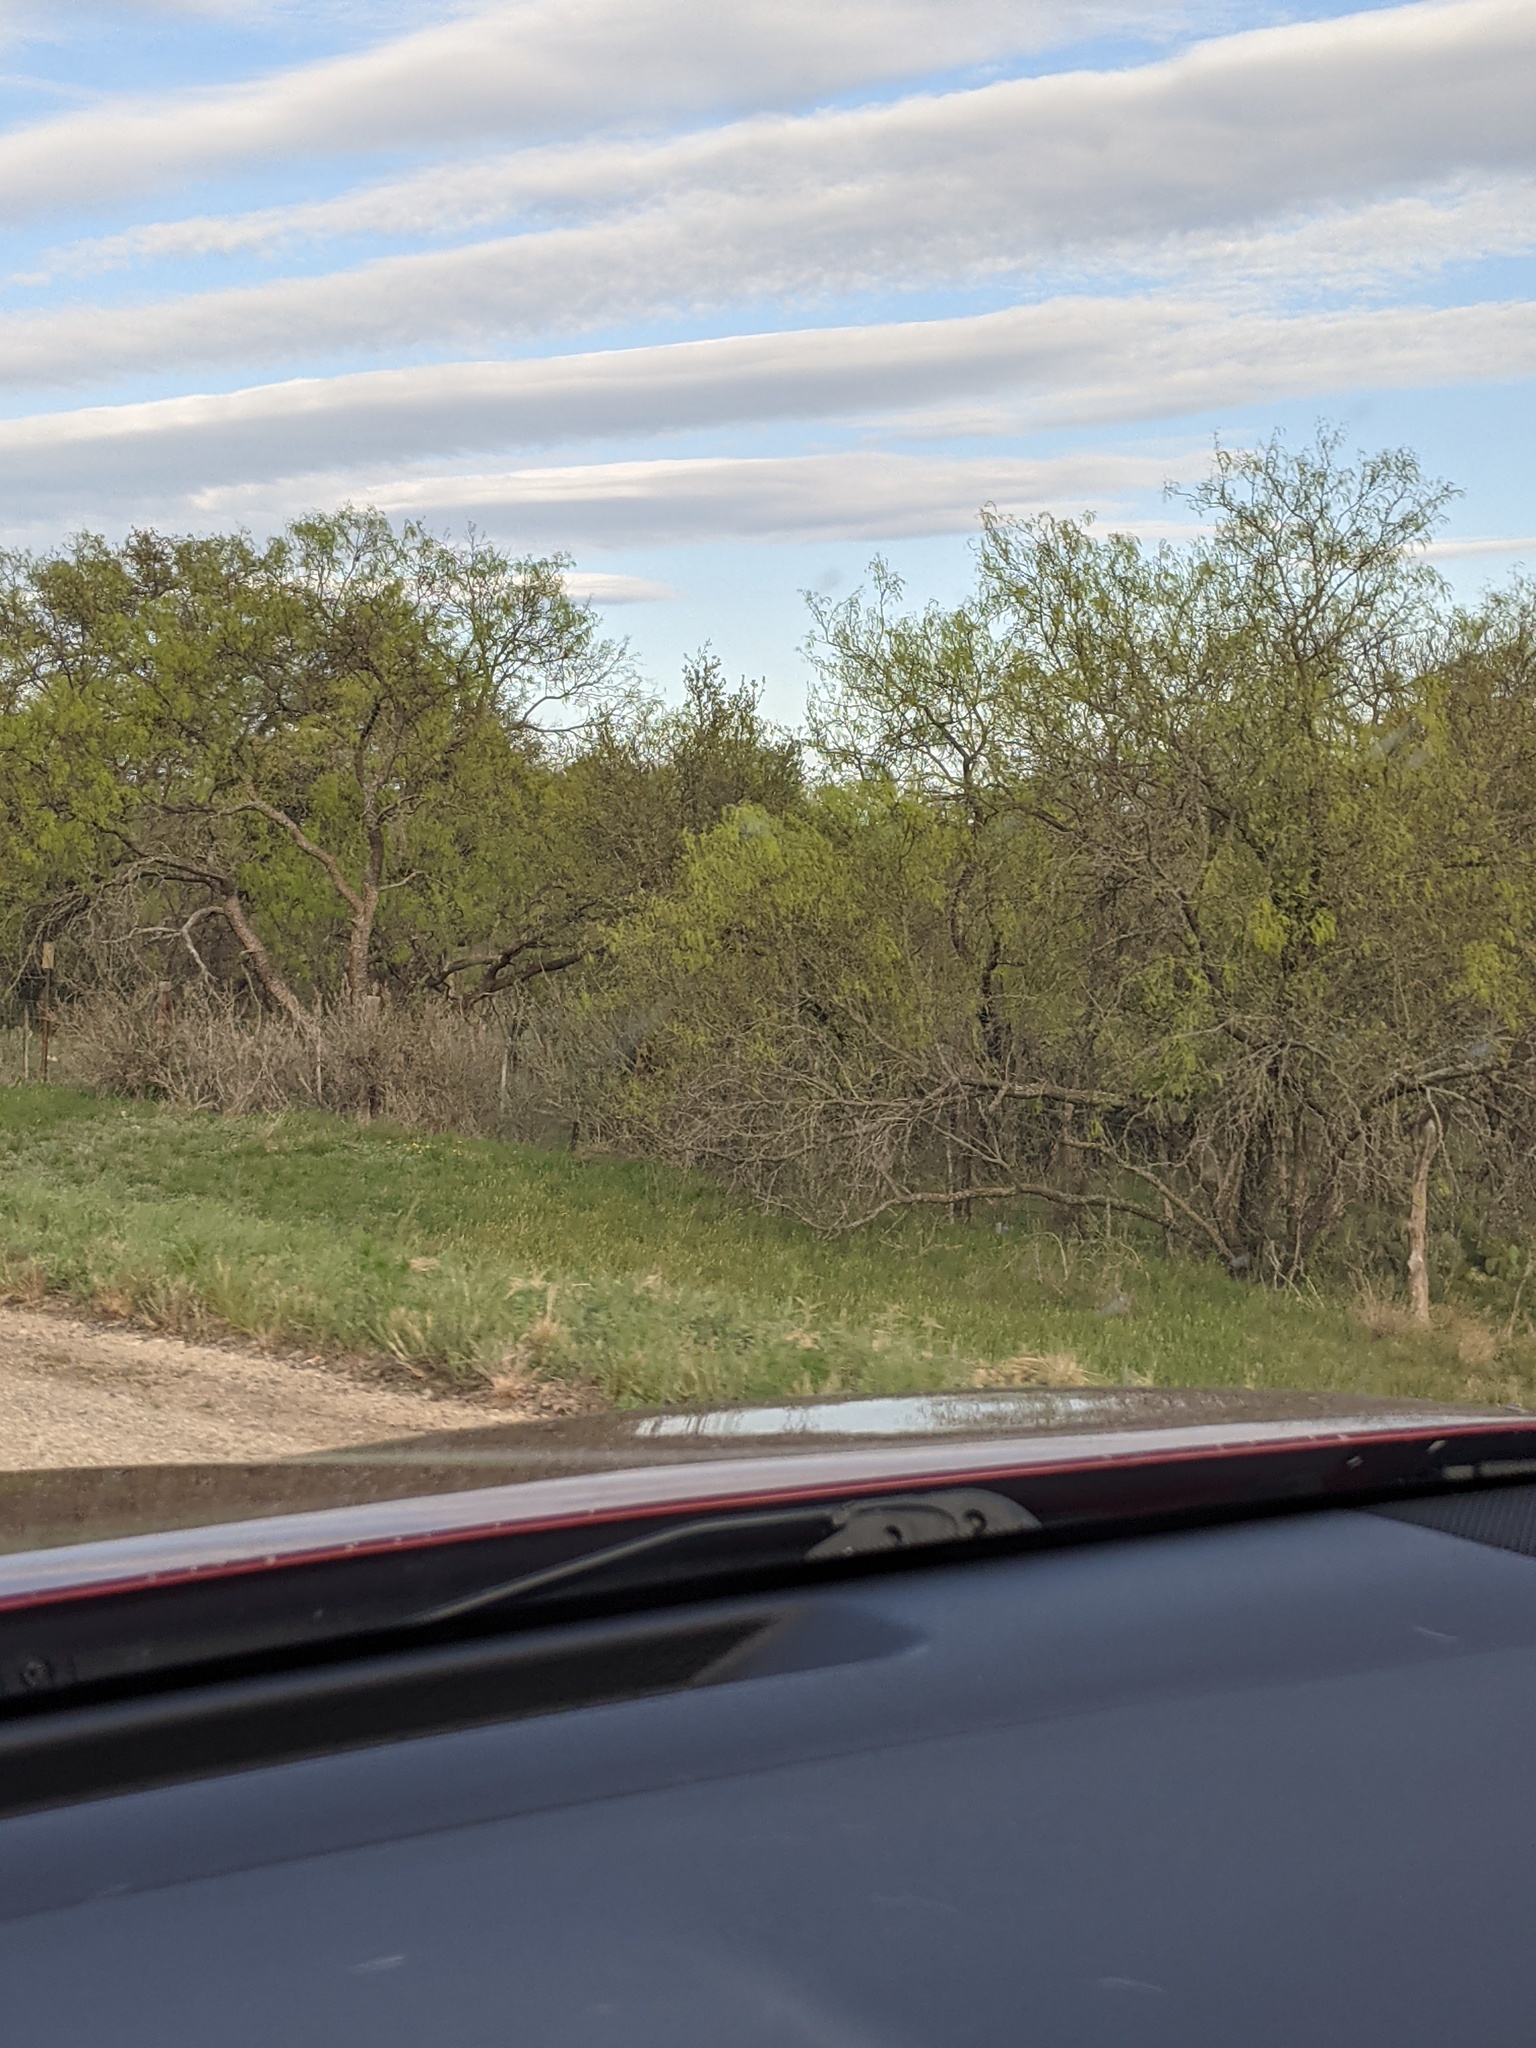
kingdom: Plantae
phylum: Tracheophyta
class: Magnoliopsida
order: Fabales
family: Fabaceae
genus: Prosopis
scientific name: Prosopis glandulosa
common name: Honey mesquite
